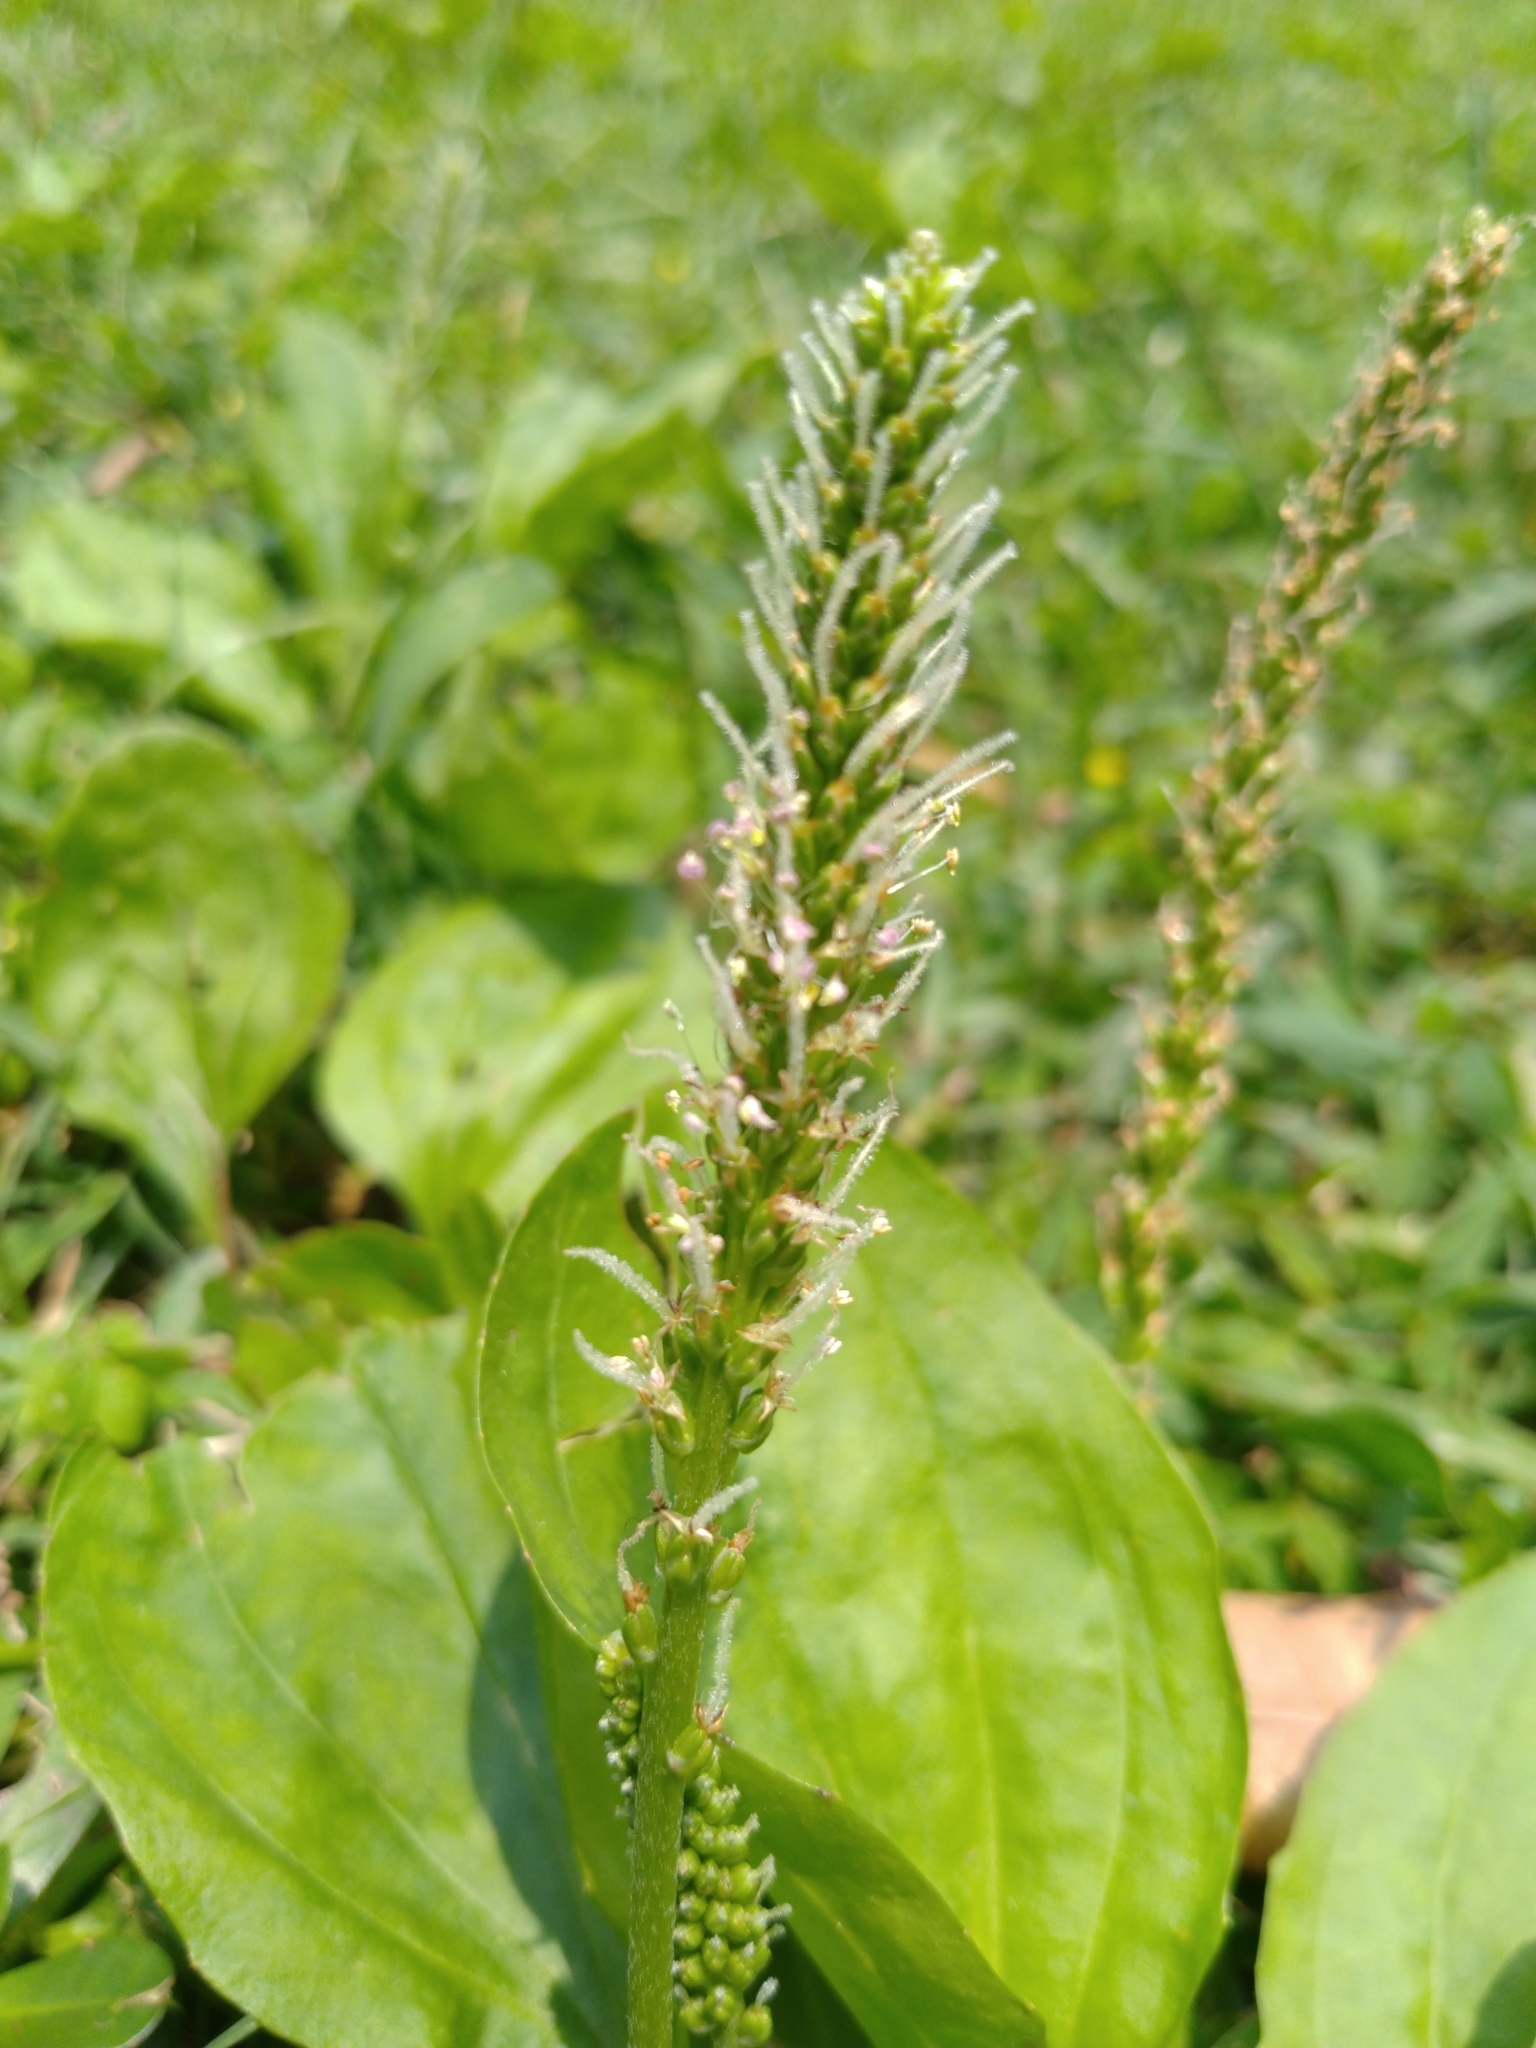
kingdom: Plantae
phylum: Tracheophyta
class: Magnoliopsida
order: Lamiales
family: Plantaginaceae
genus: Plantago
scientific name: Plantago asiatica
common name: Psyllium
